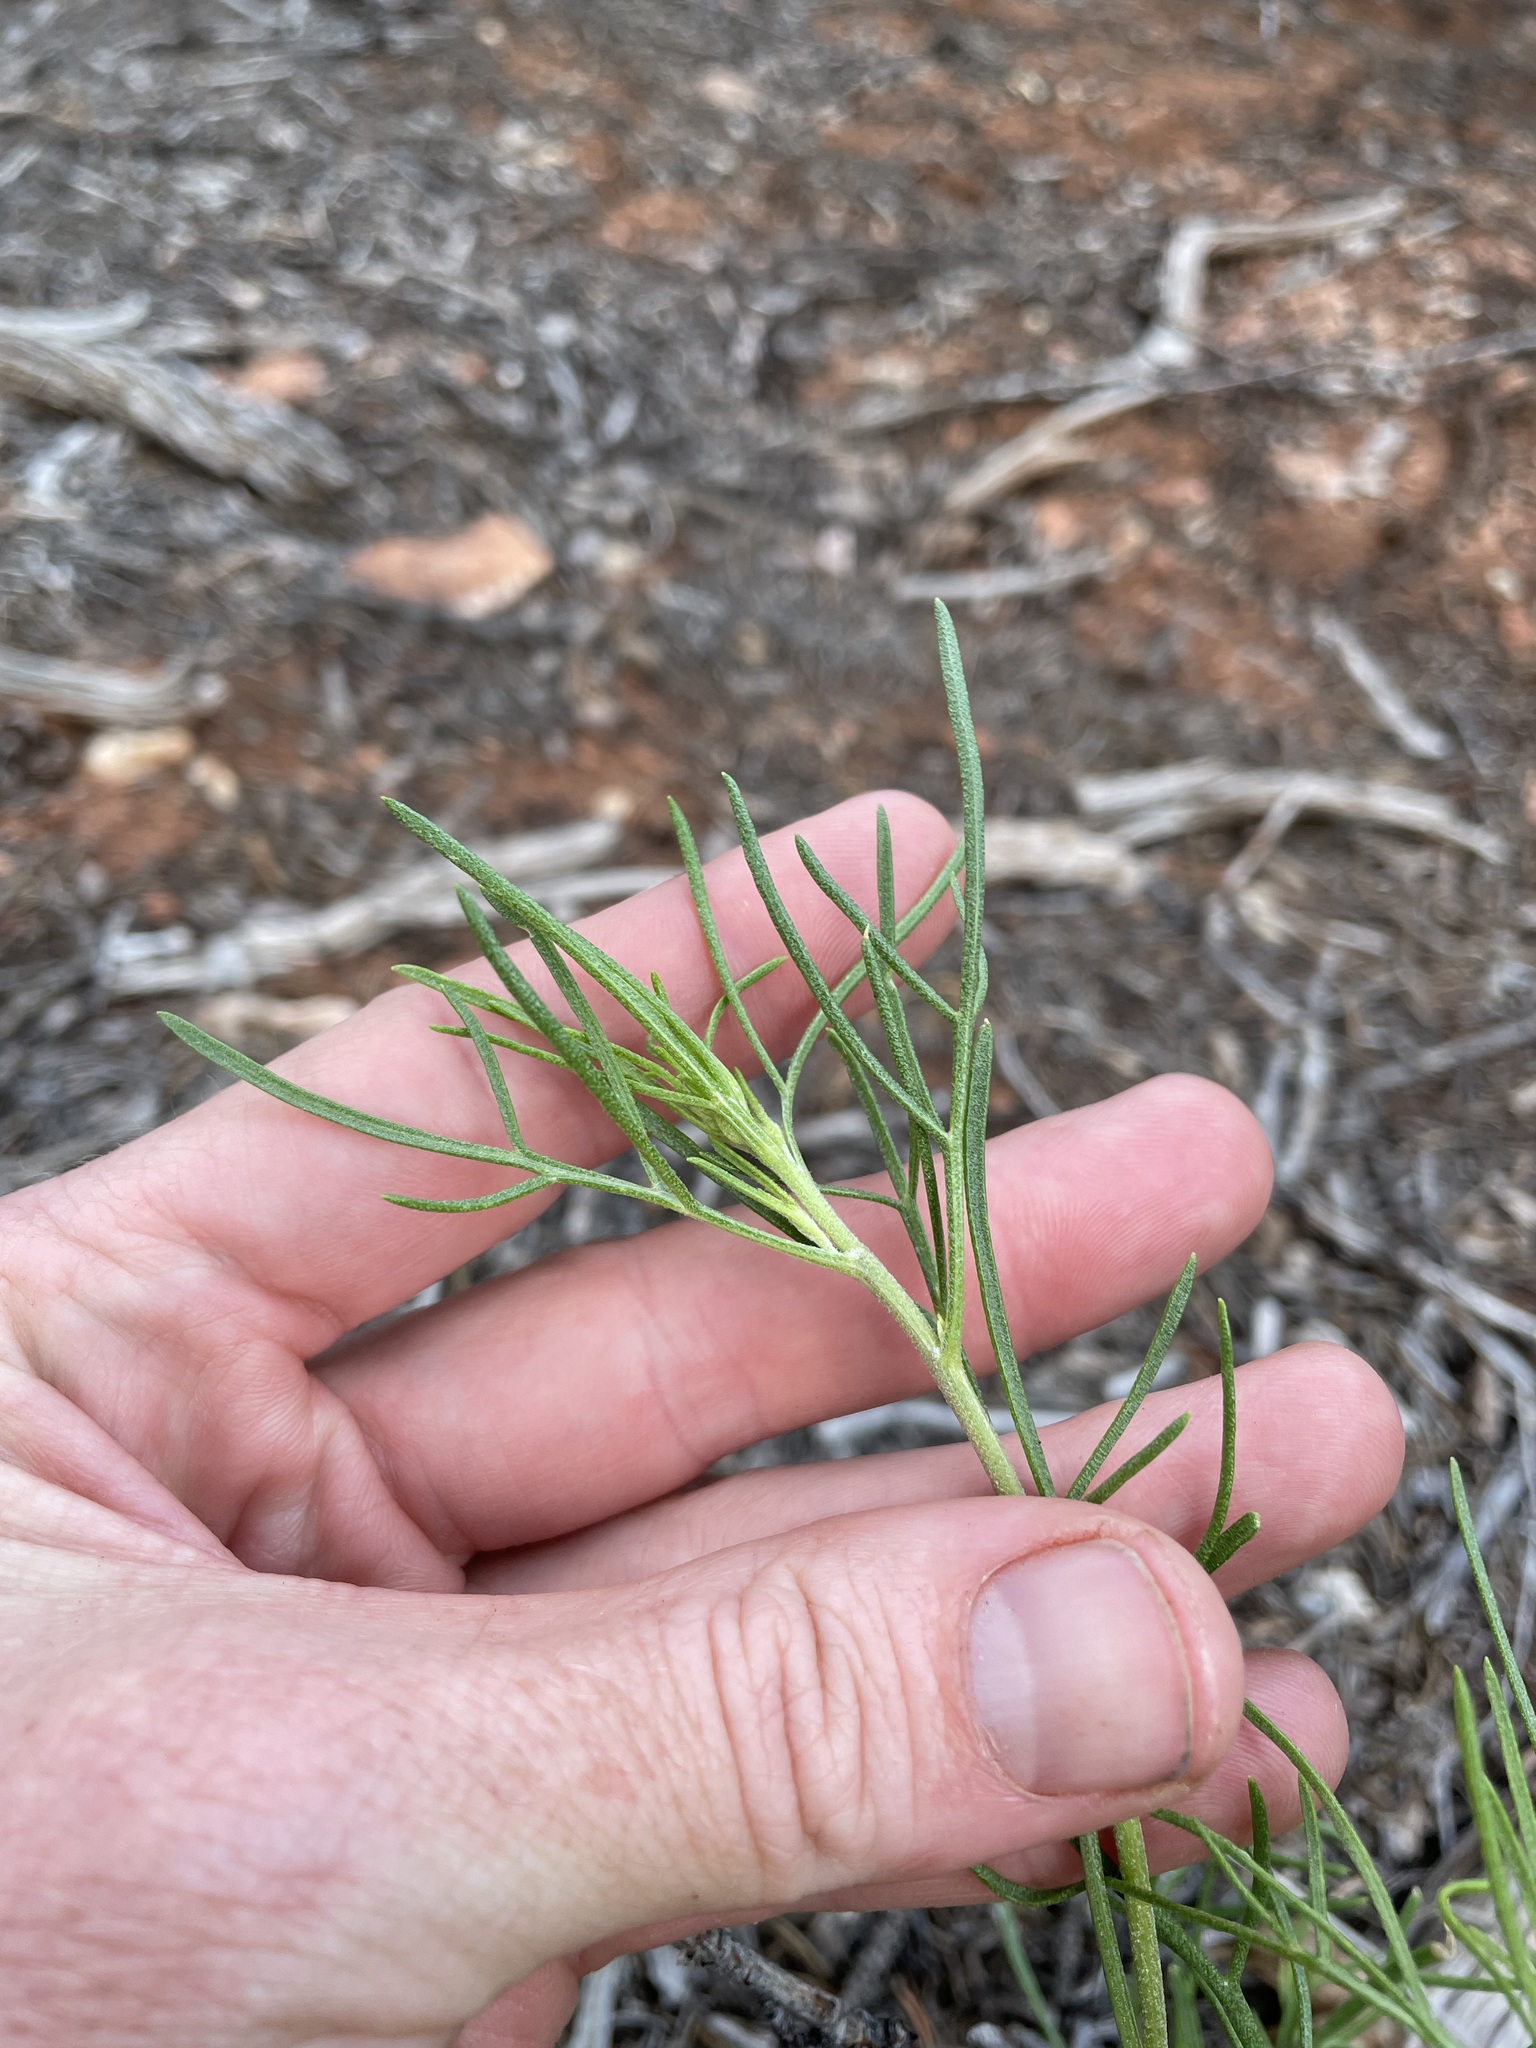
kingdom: Plantae
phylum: Tracheophyta
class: Magnoliopsida
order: Asterales
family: Asteraceae
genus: Hymenoxys
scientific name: Hymenoxys richardsonii
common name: Pingue rubberweed
